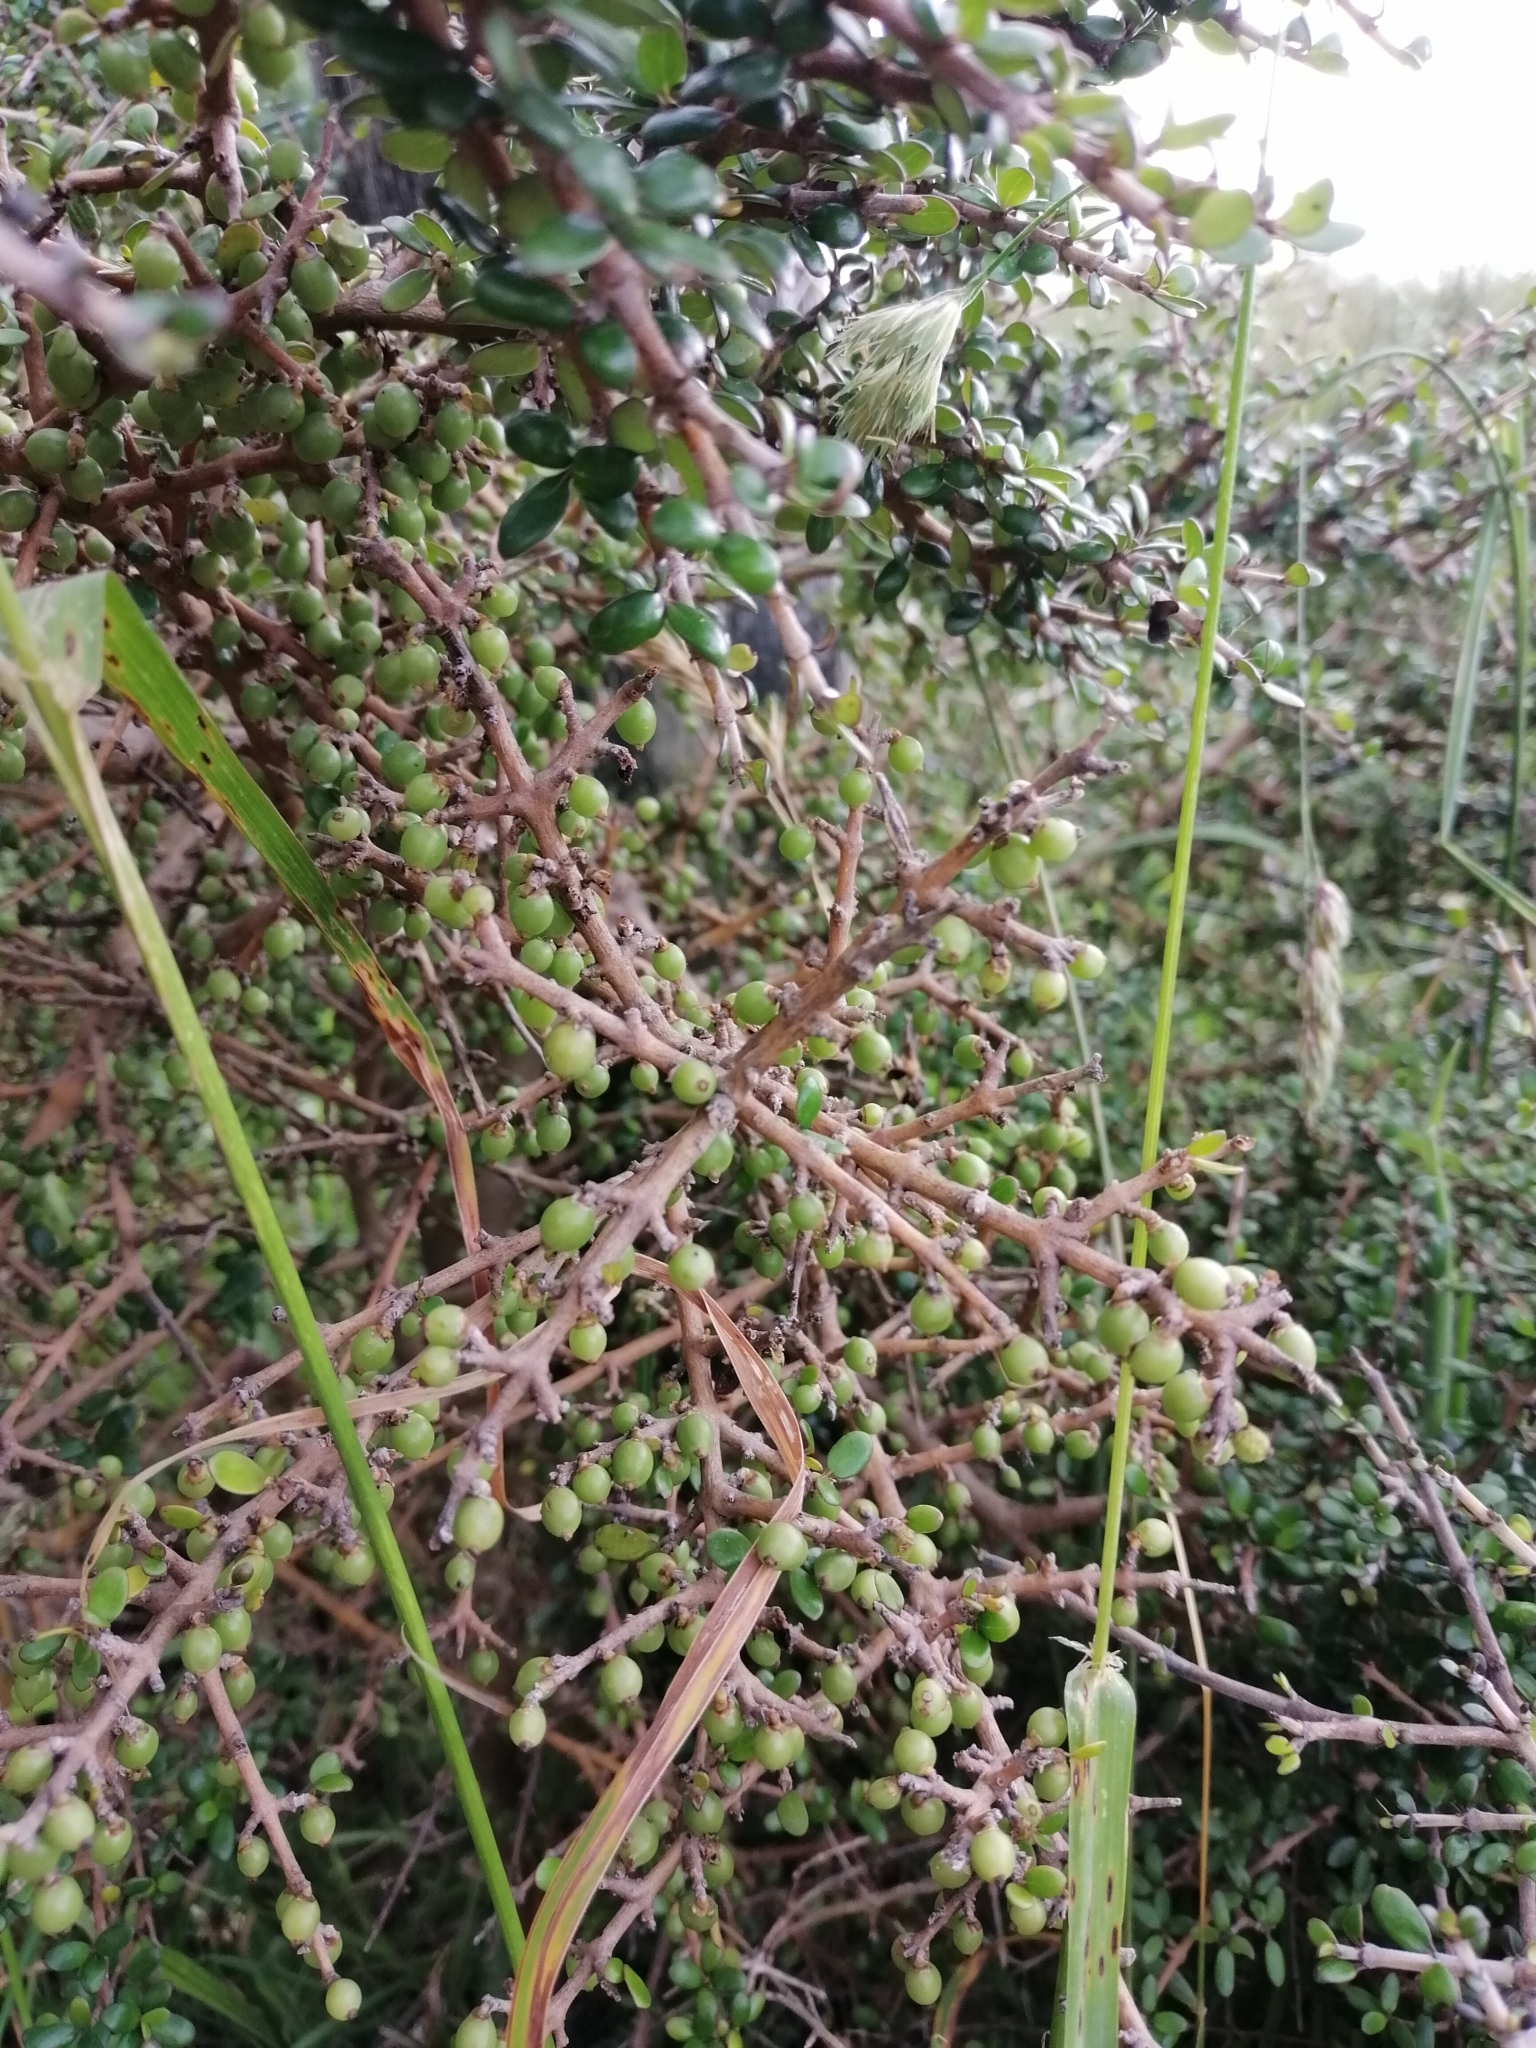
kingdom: Plantae
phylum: Tracheophyta
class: Magnoliopsida
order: Gentianales
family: Rubiaceae
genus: Coprosma
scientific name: Coprosma propinqua
